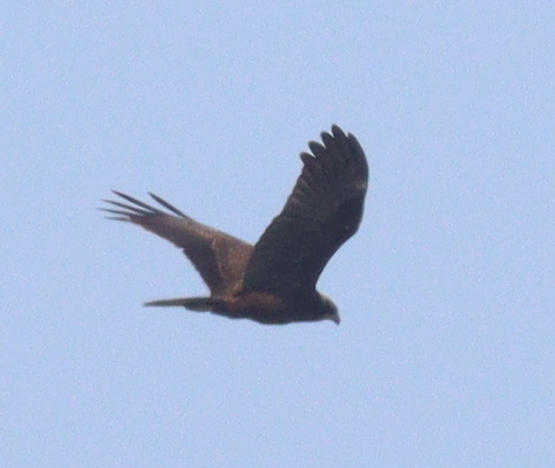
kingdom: Animalia
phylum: Chordata
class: Aves
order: Accipitriformes
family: Accipitridae
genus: Circus
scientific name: Circus aeruginosus
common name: Western marsh harrier
